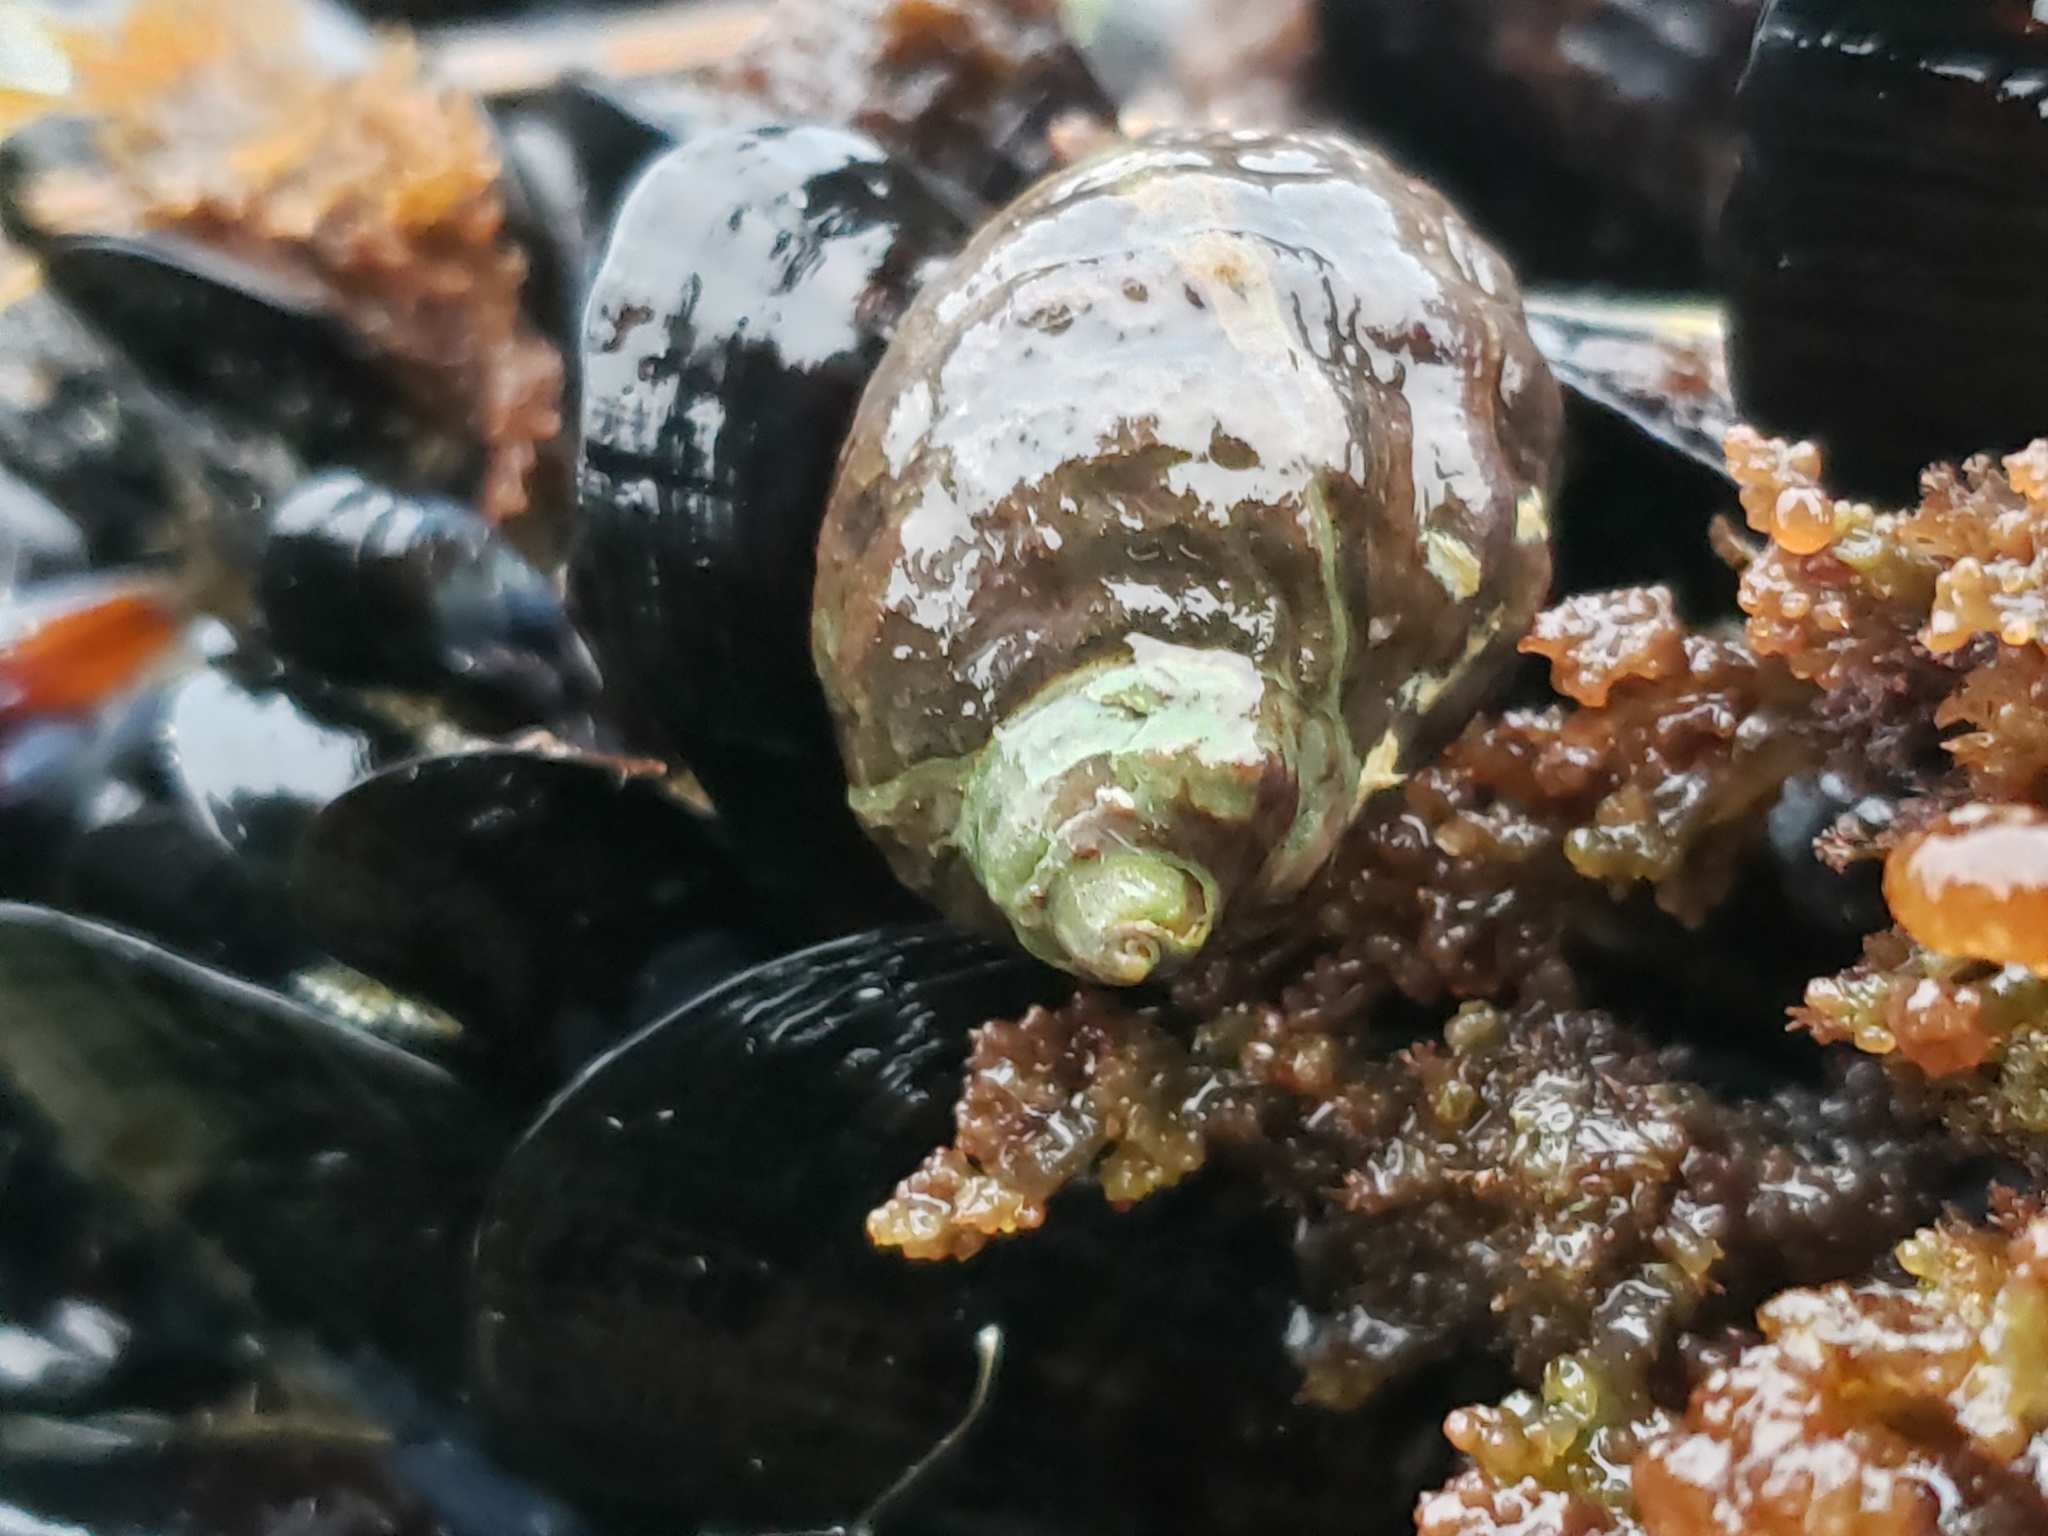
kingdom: Animalia
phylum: Mollusca
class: Gastropoda
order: Neogastropoda
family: Muricidae
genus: Mexacanthina
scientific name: Mexacanthina lugubris
